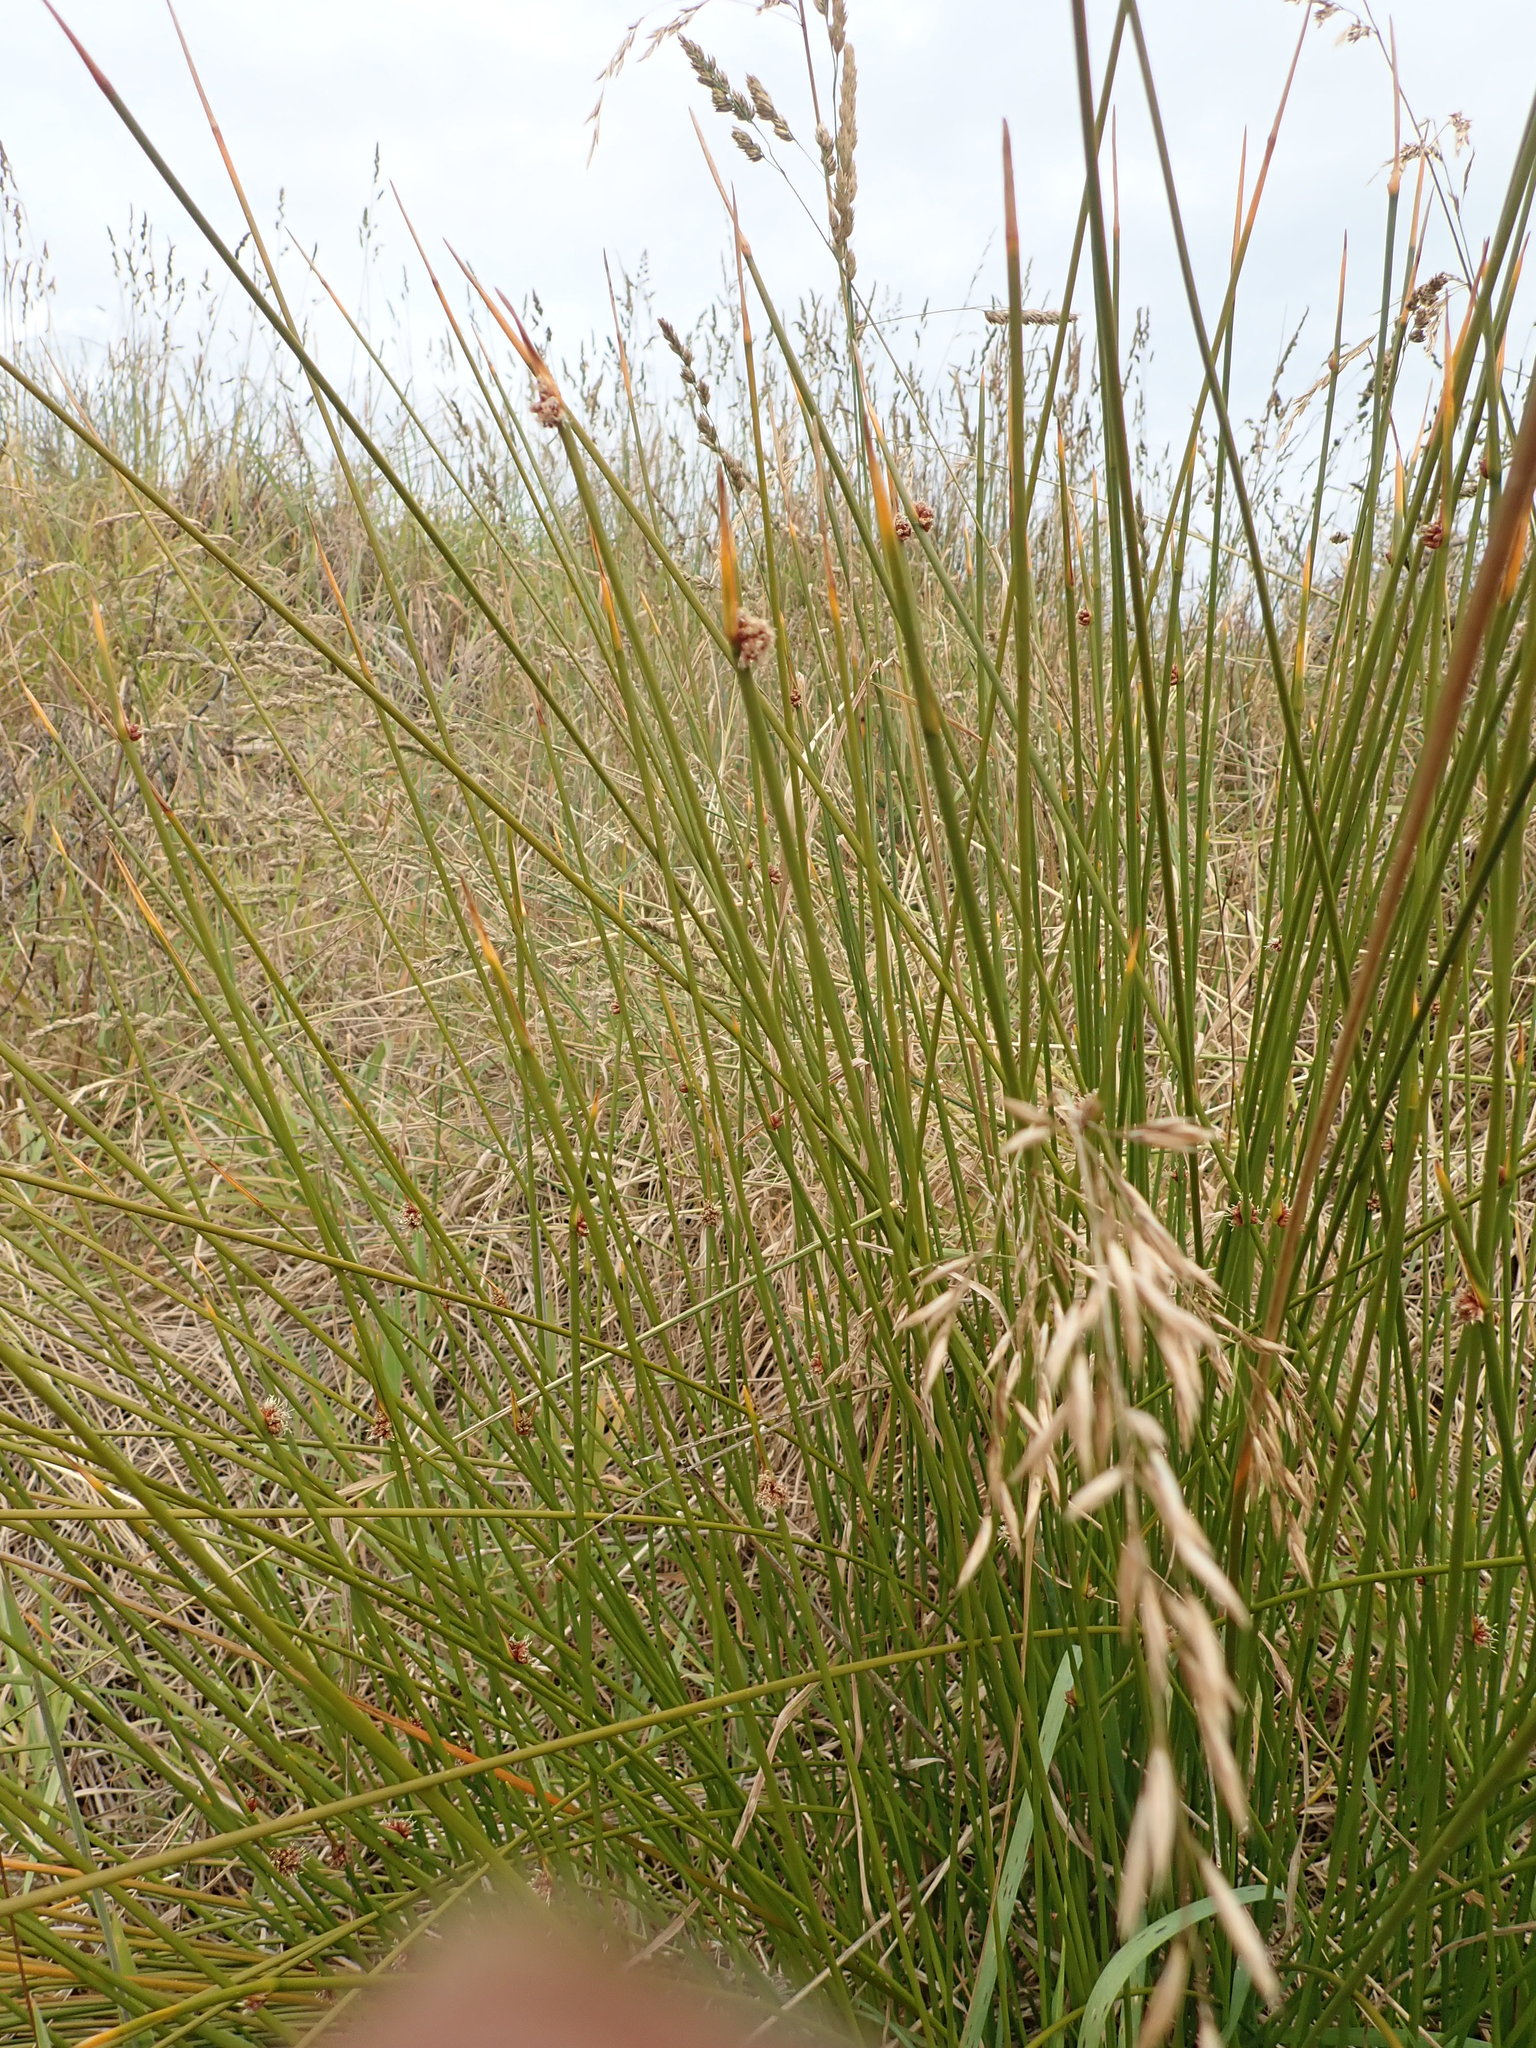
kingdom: Plantae
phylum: Tracheophyta
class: Liliopsida
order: Poales
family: Cyperaceae
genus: Ficinia
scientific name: Ficinia nodosa
